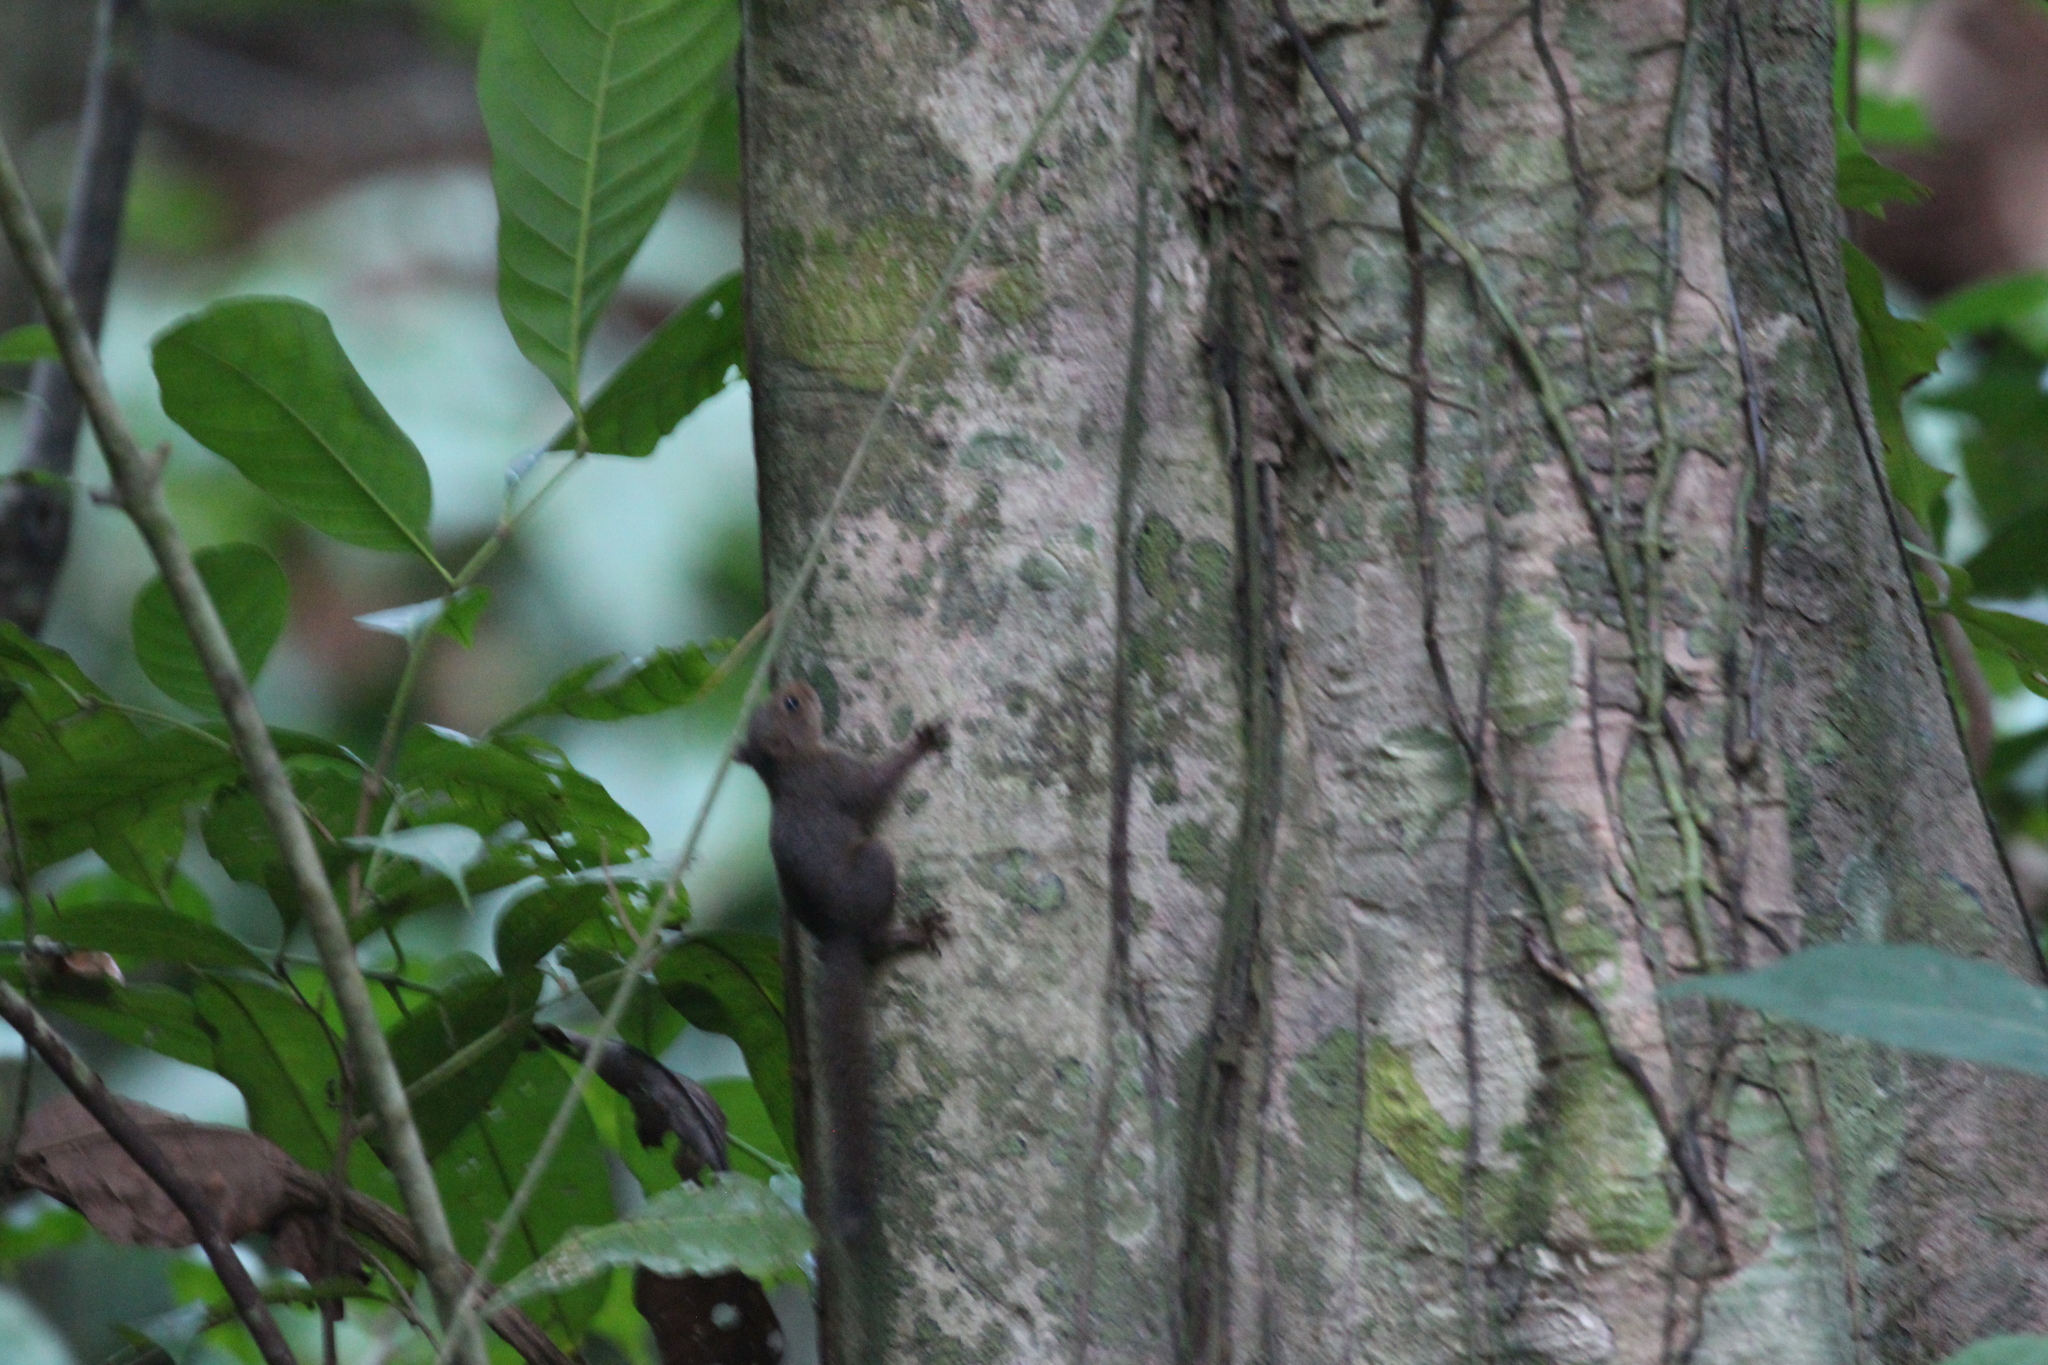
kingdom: Animalia
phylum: Chordata
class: Mammalia
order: Rodentia
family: Sciuridae
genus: Microsciurus
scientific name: Microsciurus alfari
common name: Central american dwarf squirrel
